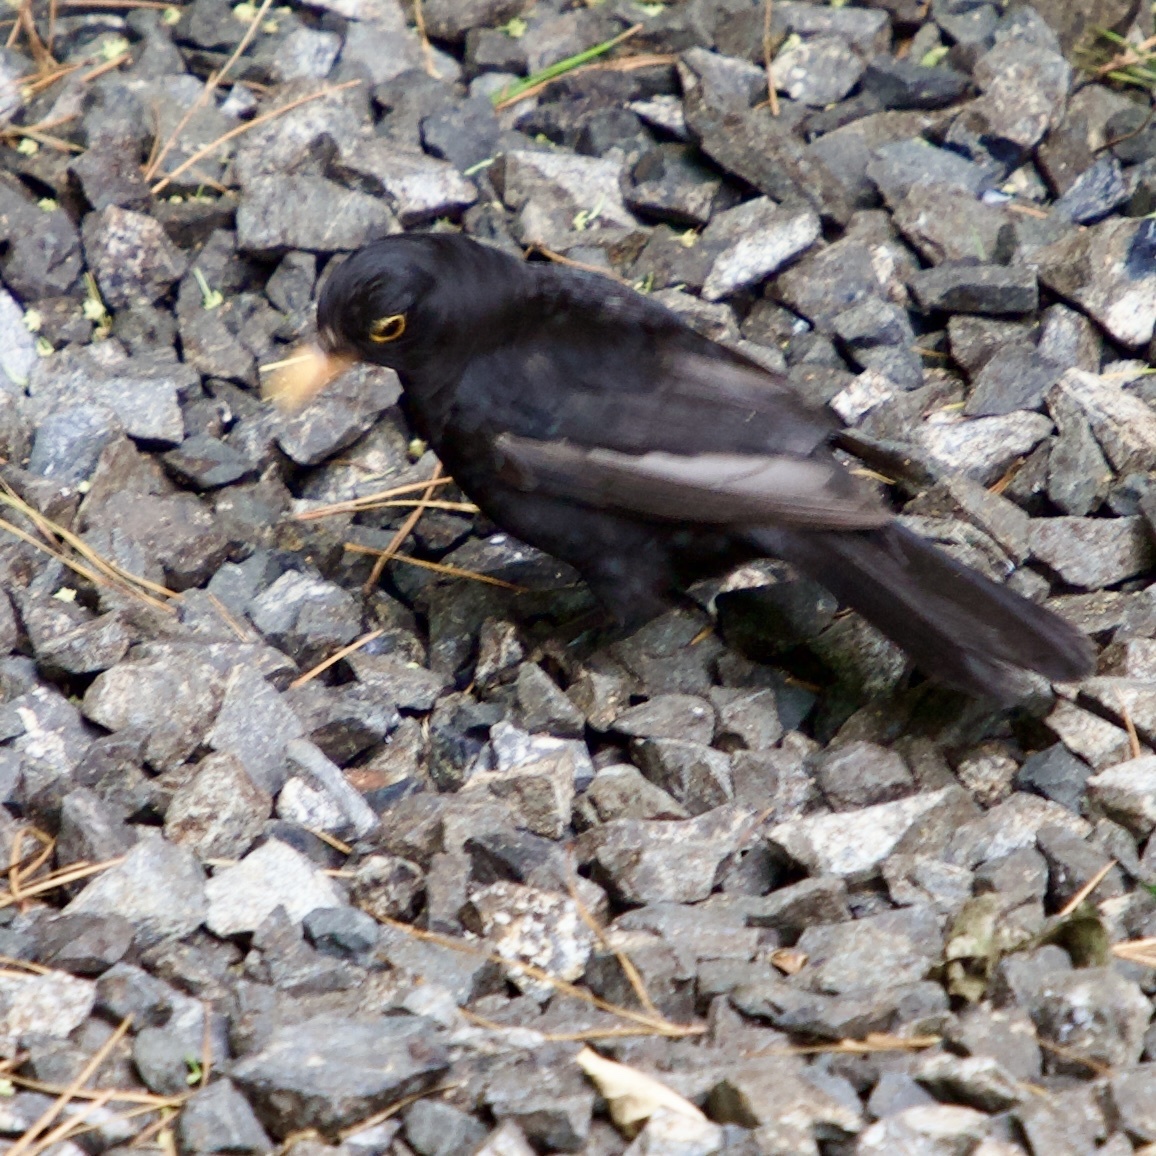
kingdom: Animalia
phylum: Chordata
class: Aves
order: Passeriformes
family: Turdidae
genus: Turdus
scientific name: Turdus merula
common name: Common blackbird
